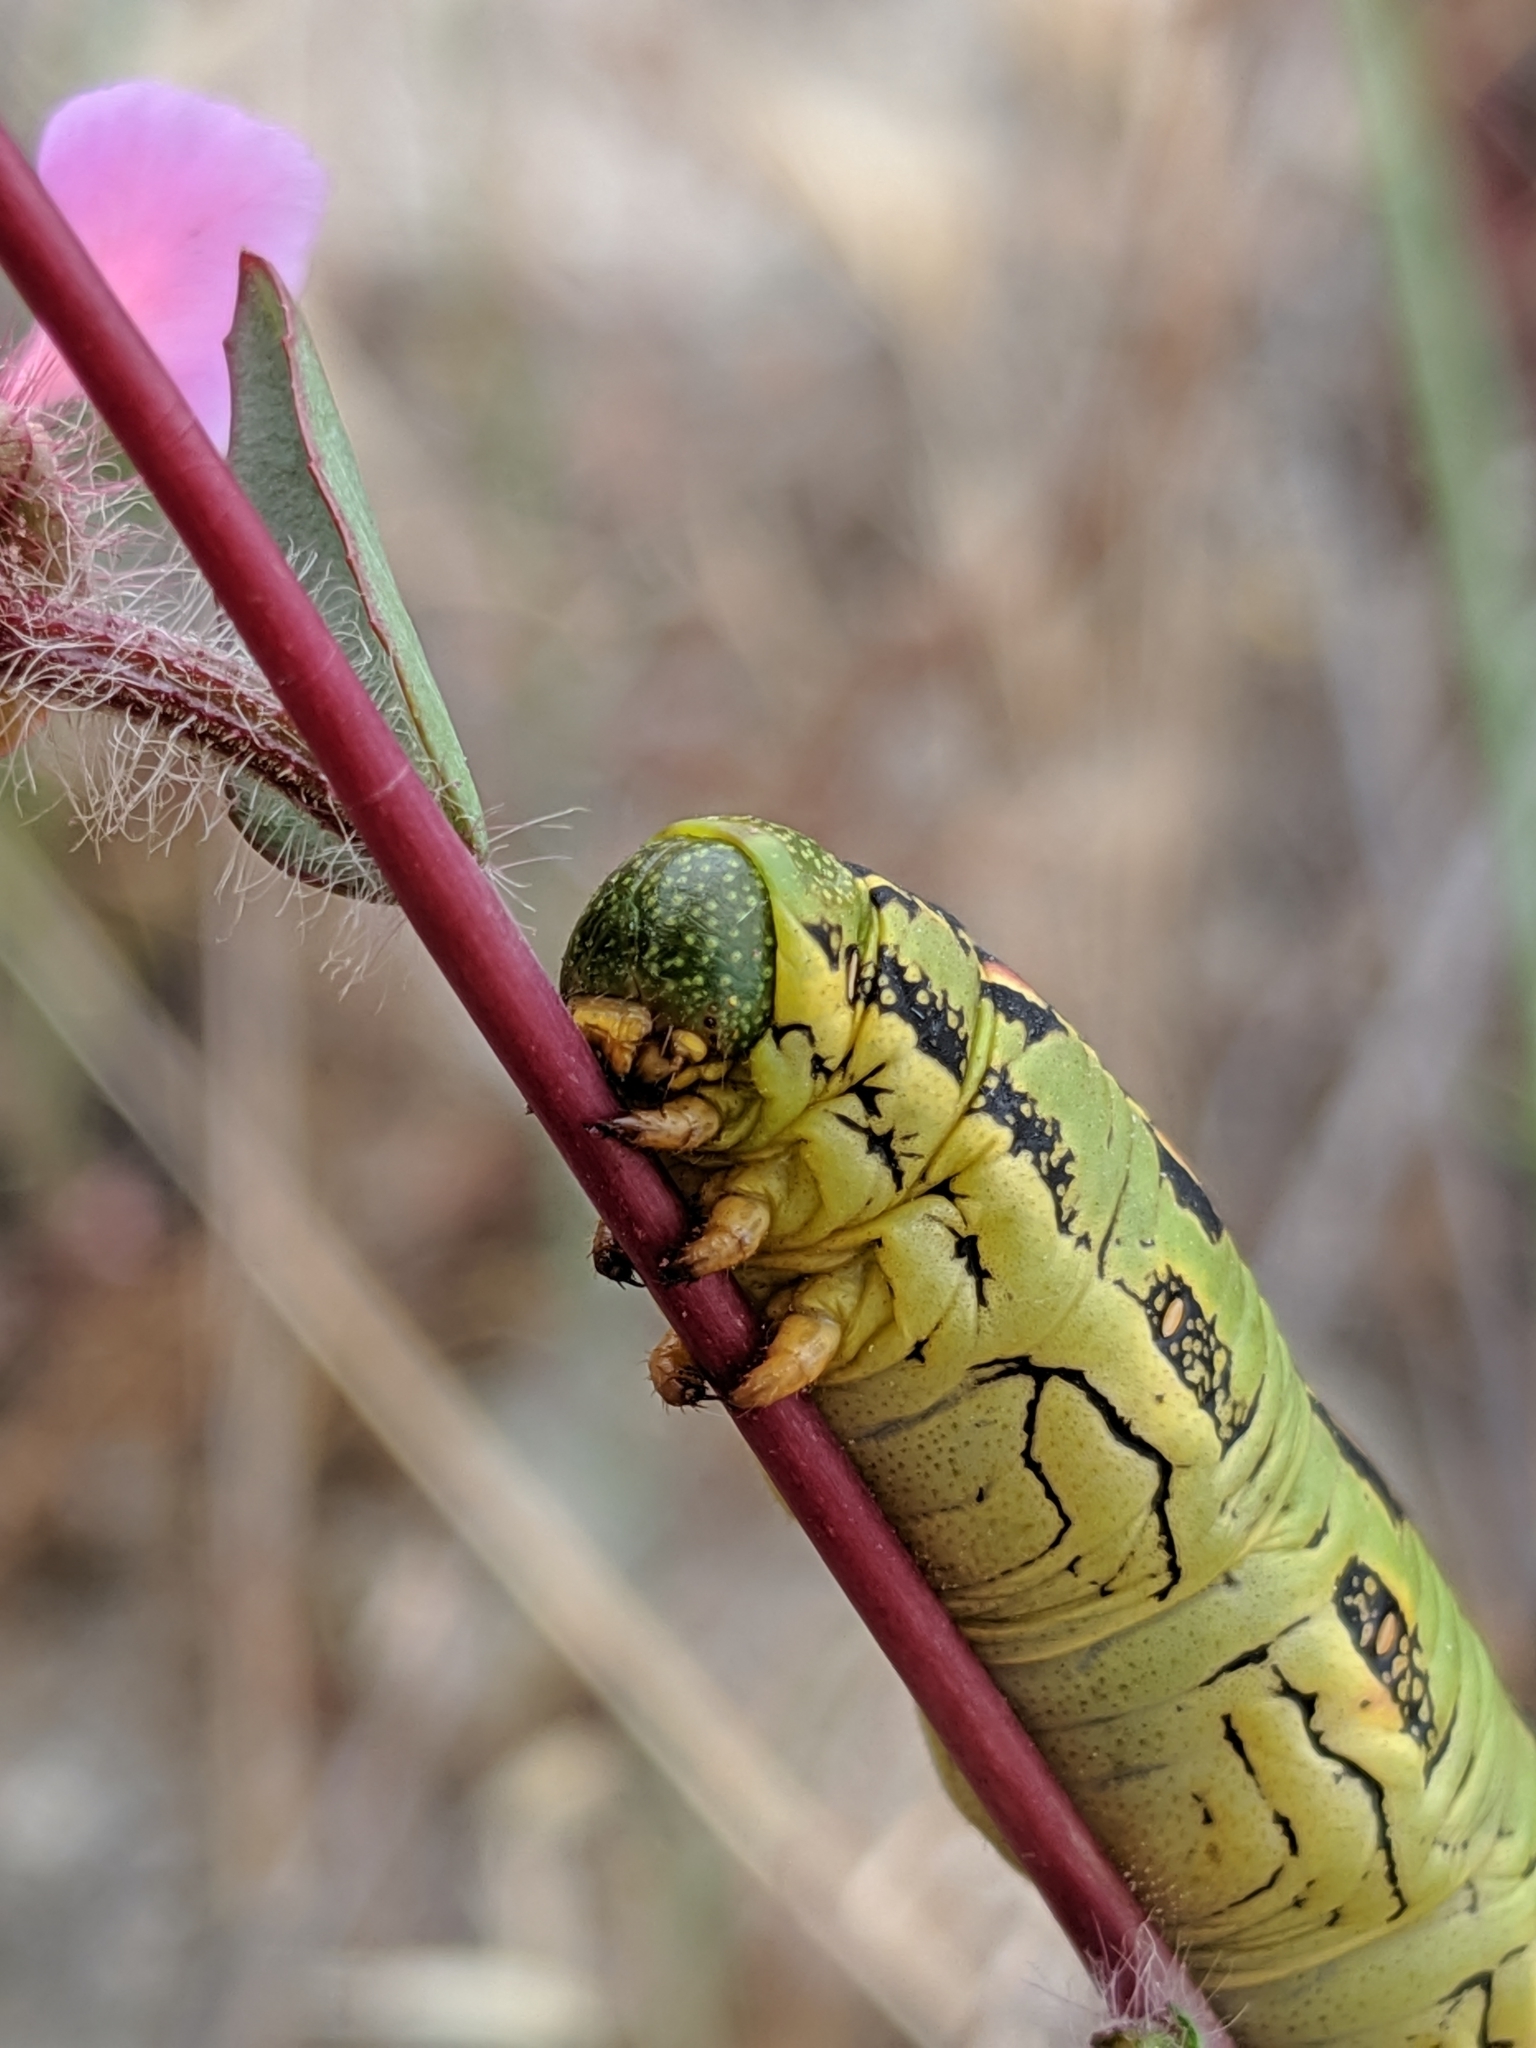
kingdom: Animalia
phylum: Arthropoda
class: Insecta
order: Lepidoptera
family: Sphingidae
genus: Hyles
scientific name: Hyles lineata
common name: White-lined sphinx
